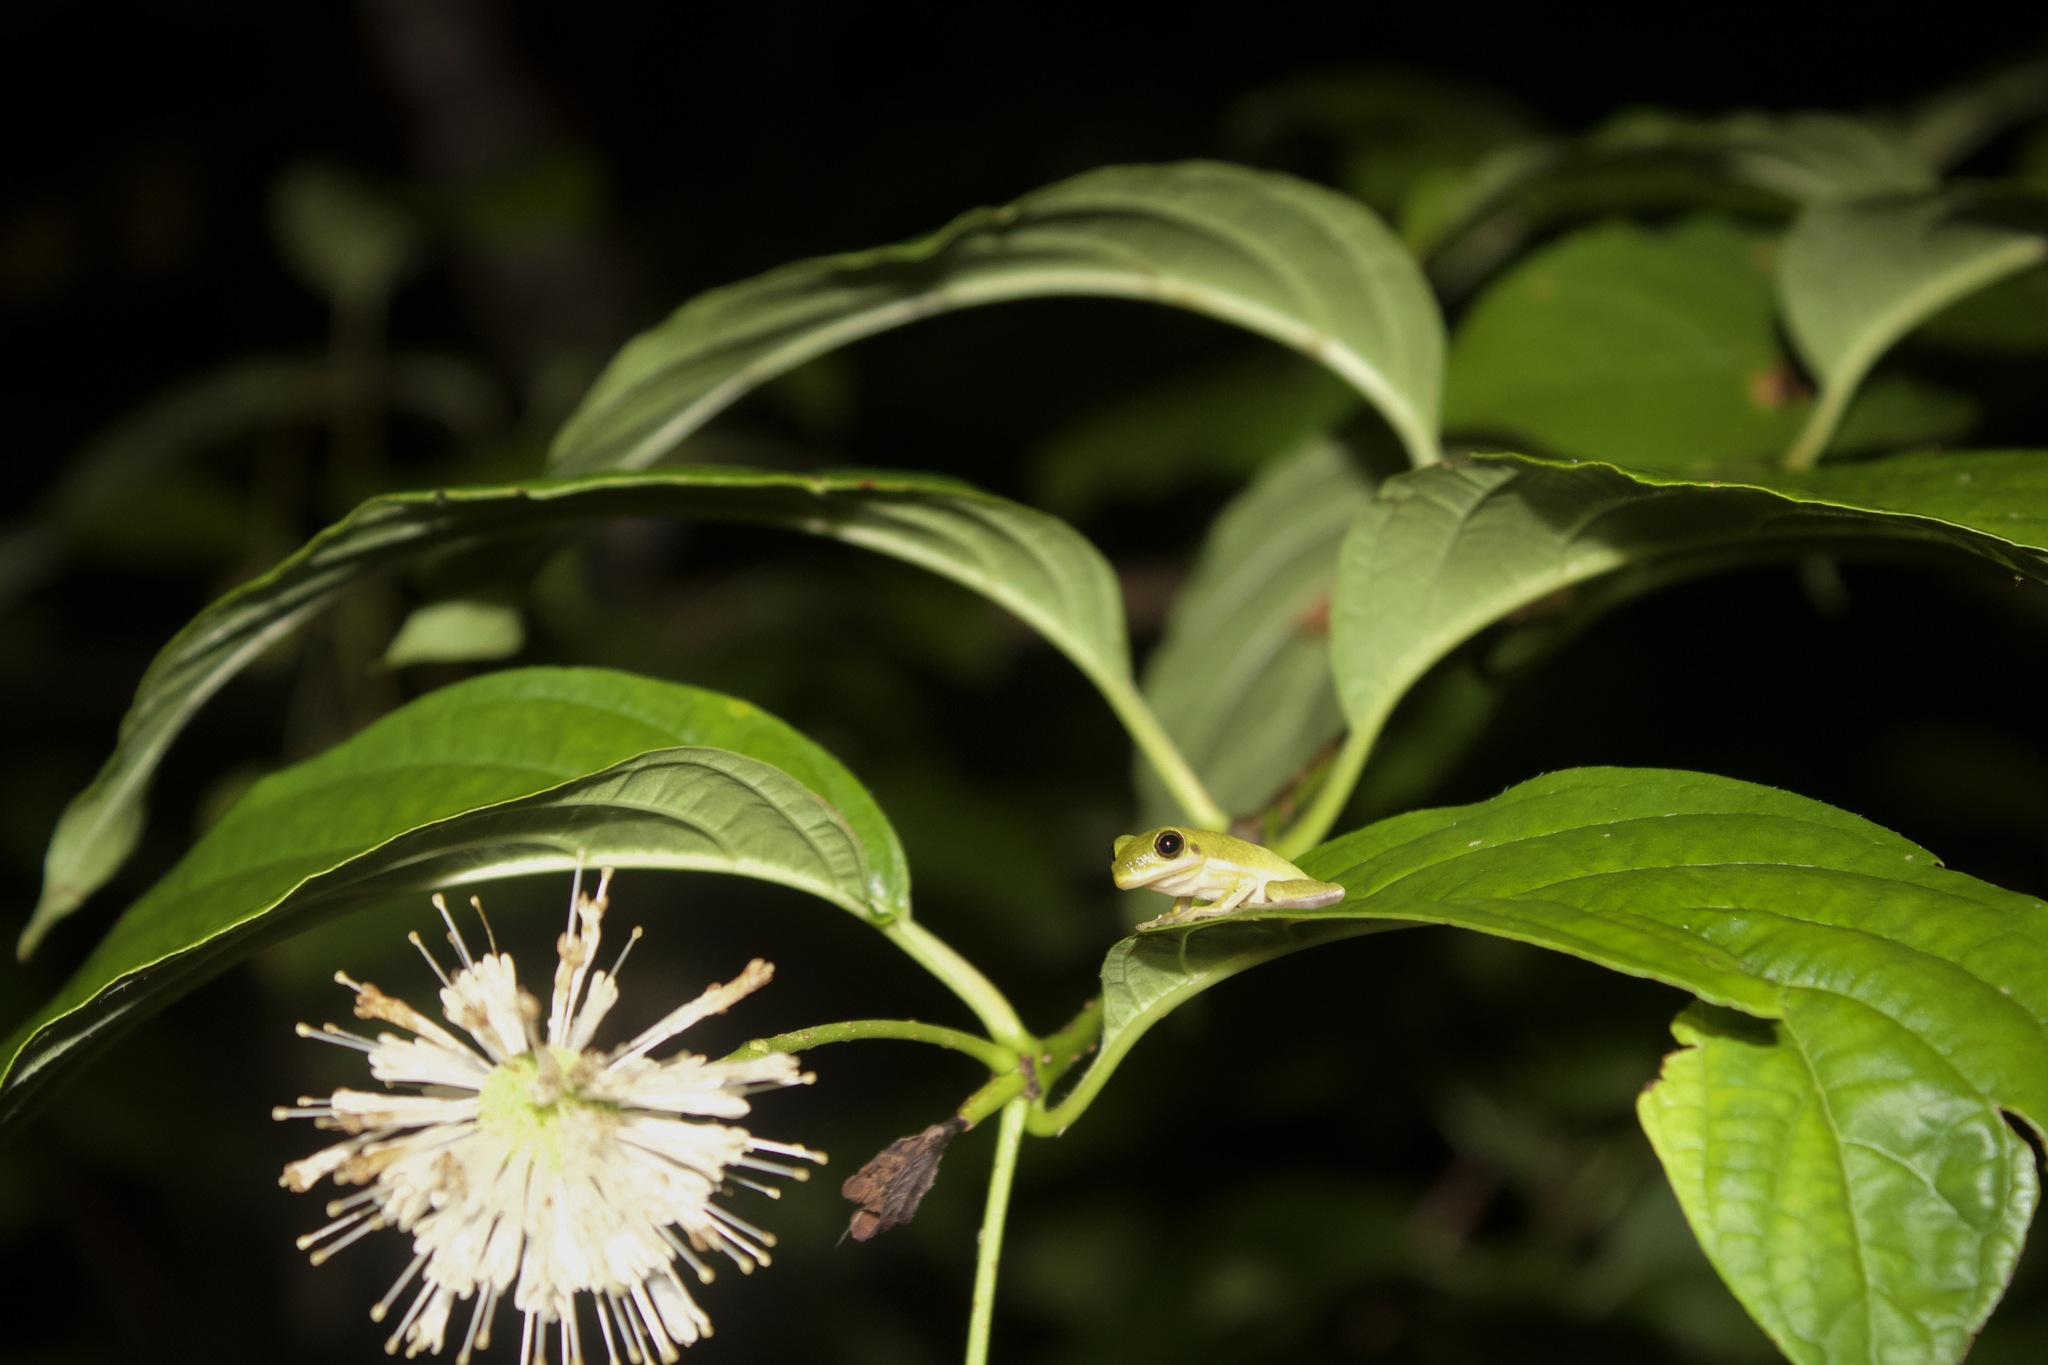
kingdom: Animalia
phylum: Chordata
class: Amphibia
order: Anura
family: Hylidae
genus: Dryophytes
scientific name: Dryophytes cinereus
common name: Green treefrog
